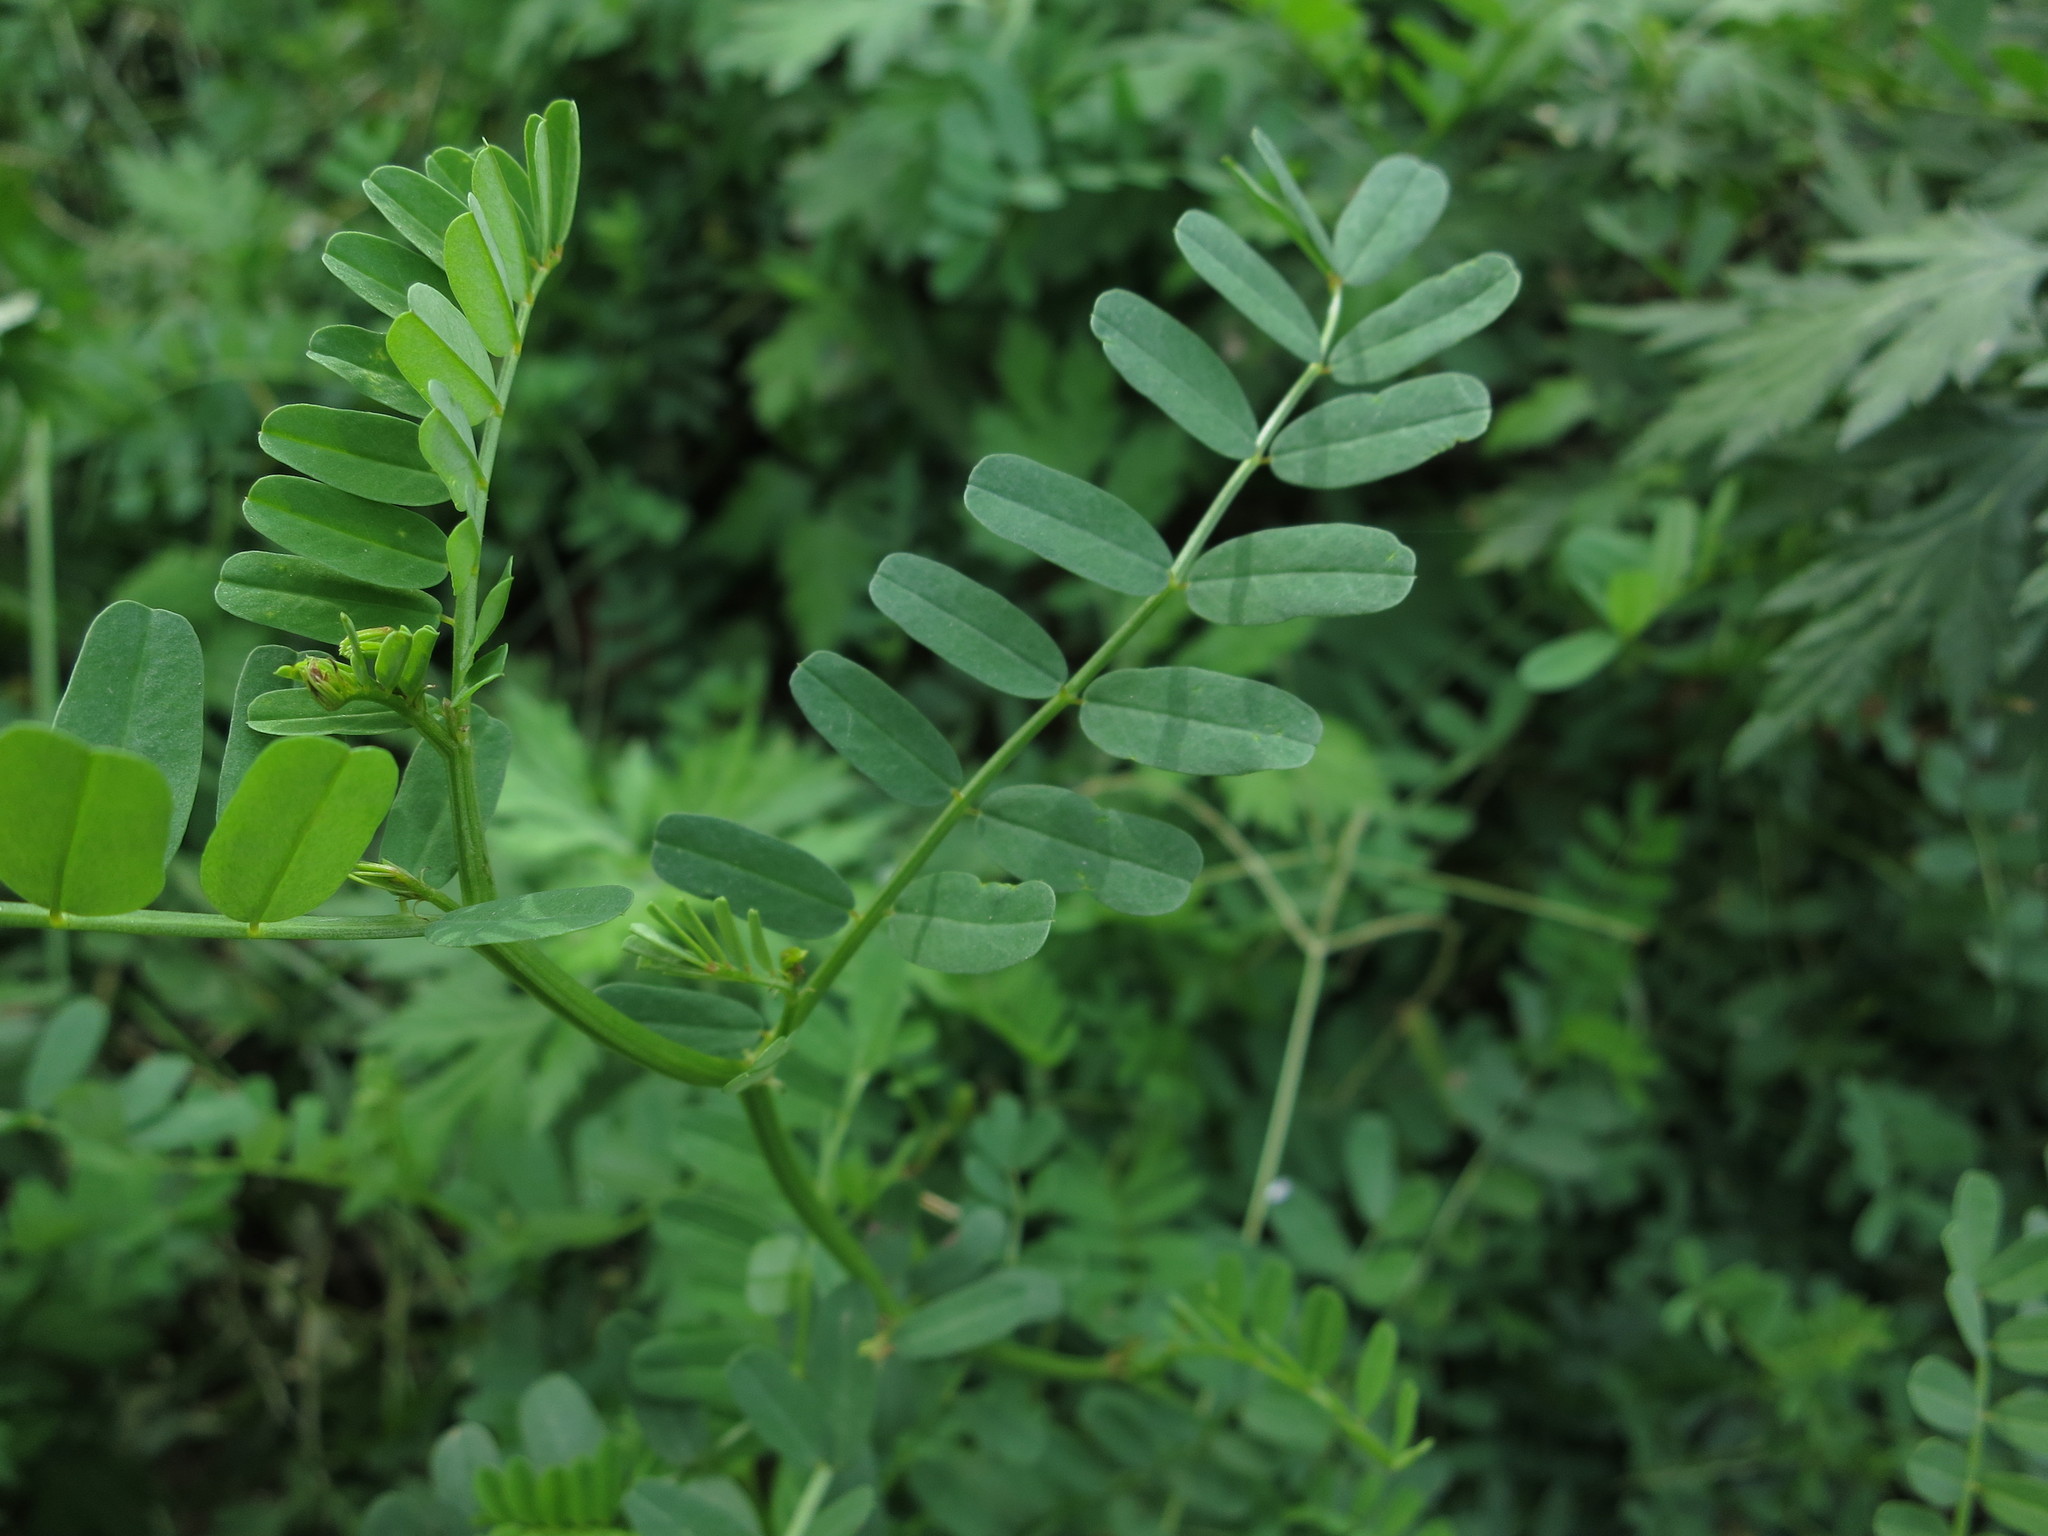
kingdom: Plantae
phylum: Tracheophyta
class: Magnoliopsida
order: Fabales
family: Fabaceae
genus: Coronilla
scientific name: Coronilla varia
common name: Crownvetch
